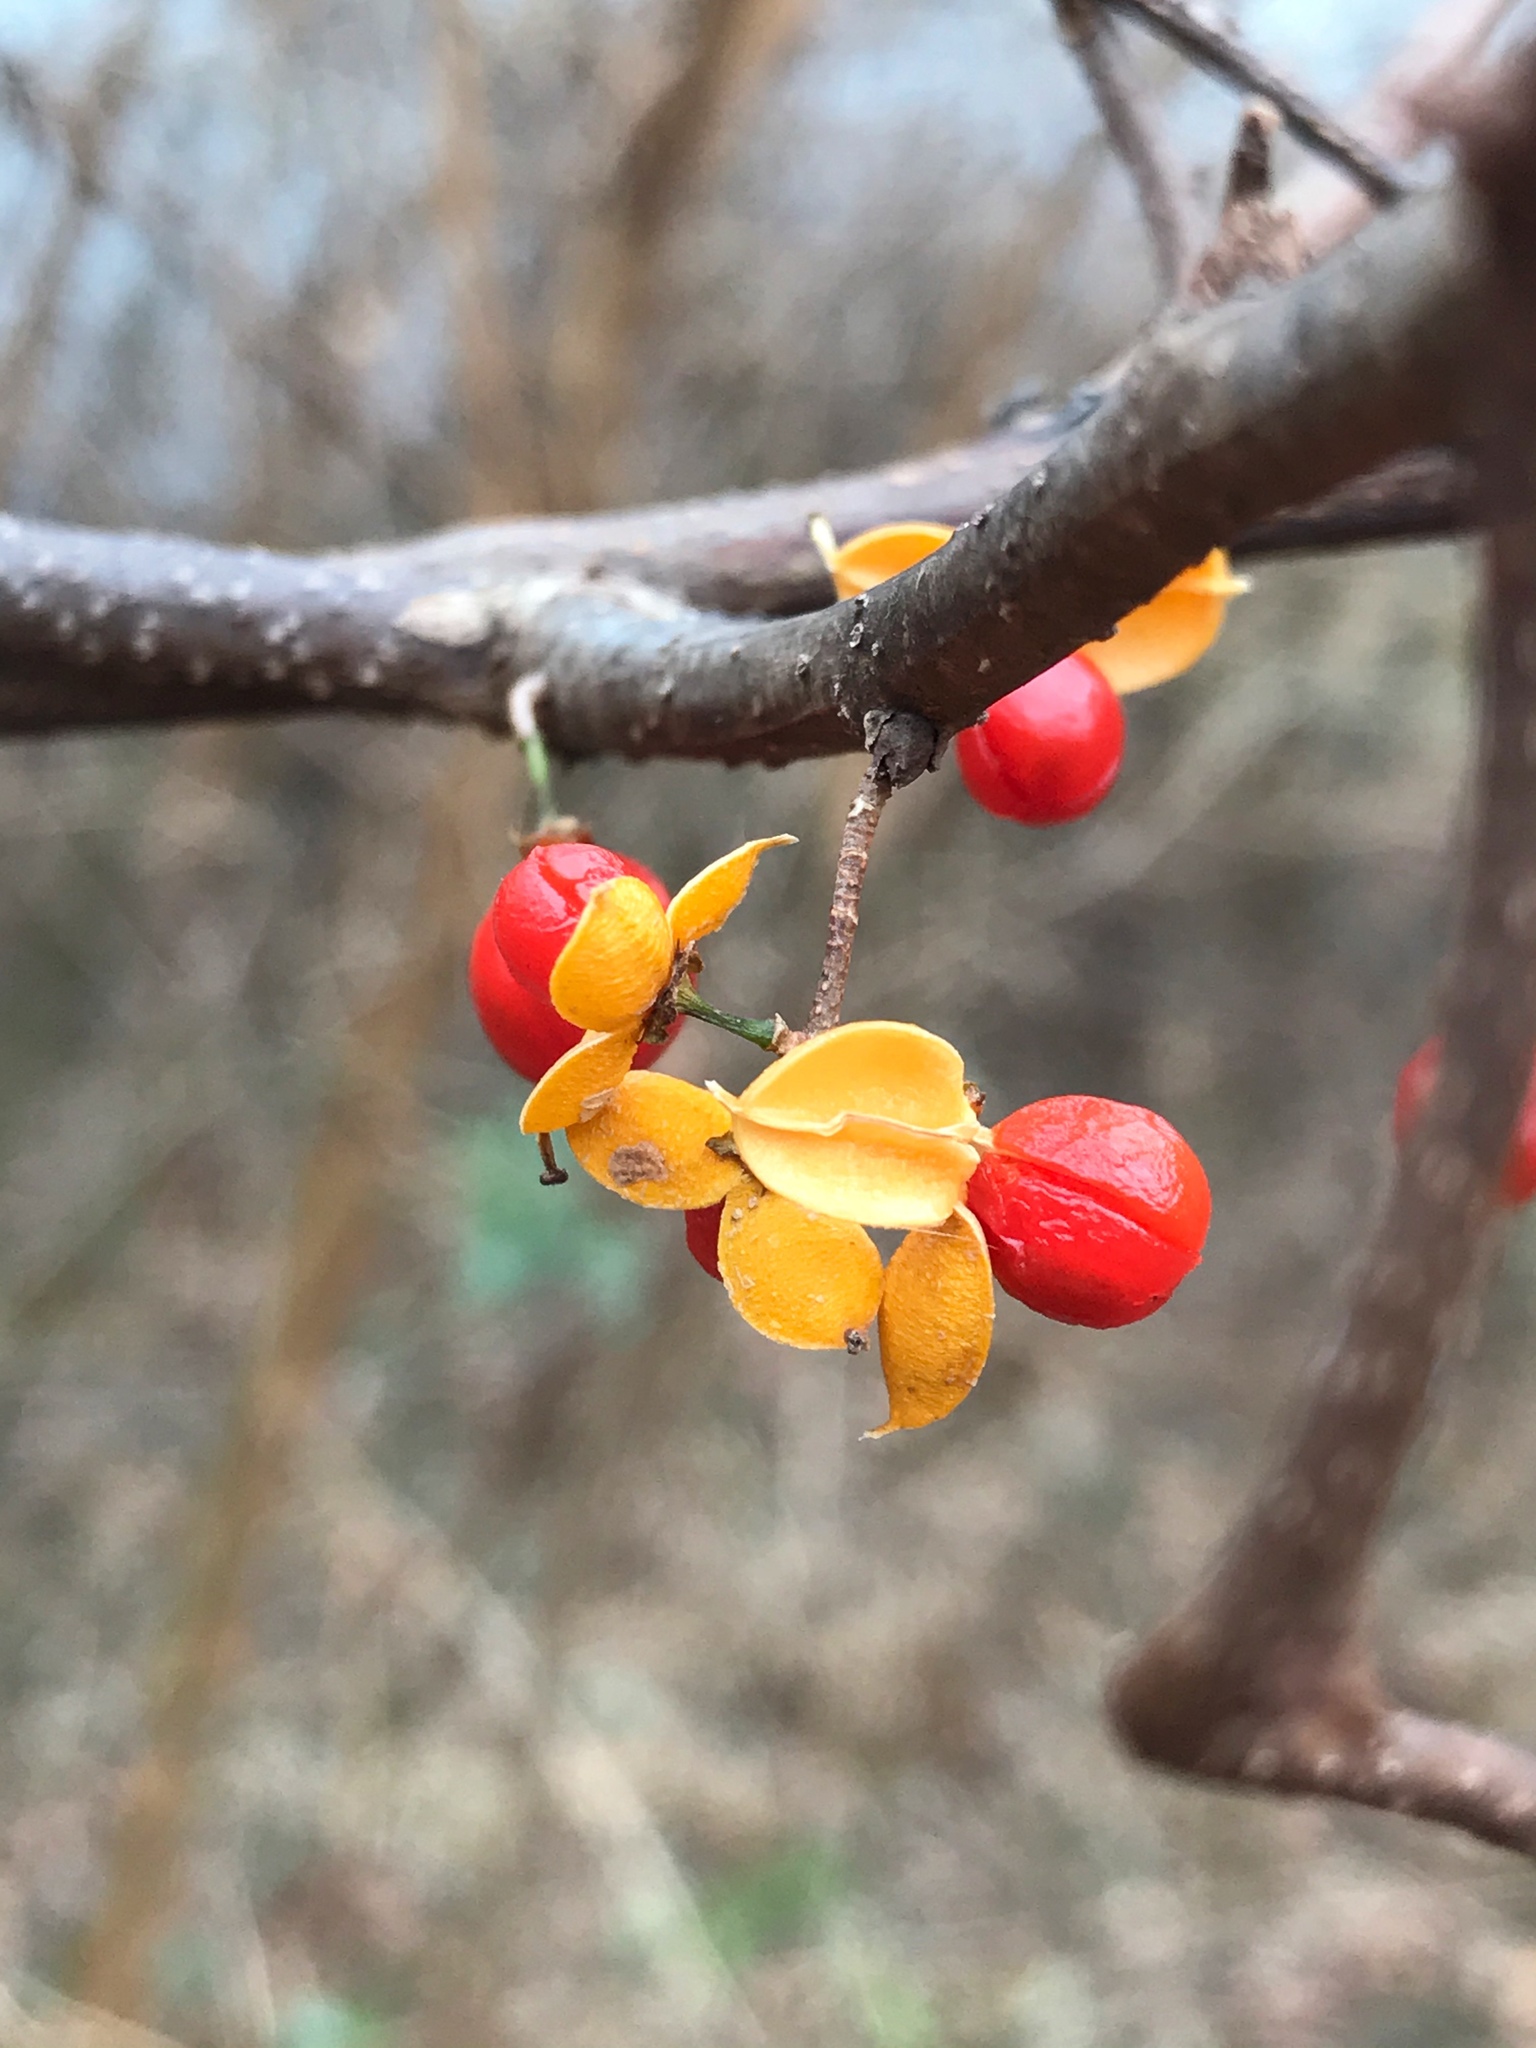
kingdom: Plantae
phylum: Tracheophyta
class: Magnoliopsida
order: Celastrales
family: Celastraceae
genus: Celastrus
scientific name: Celastrus orbiculatus
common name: Oriental bittersweet
